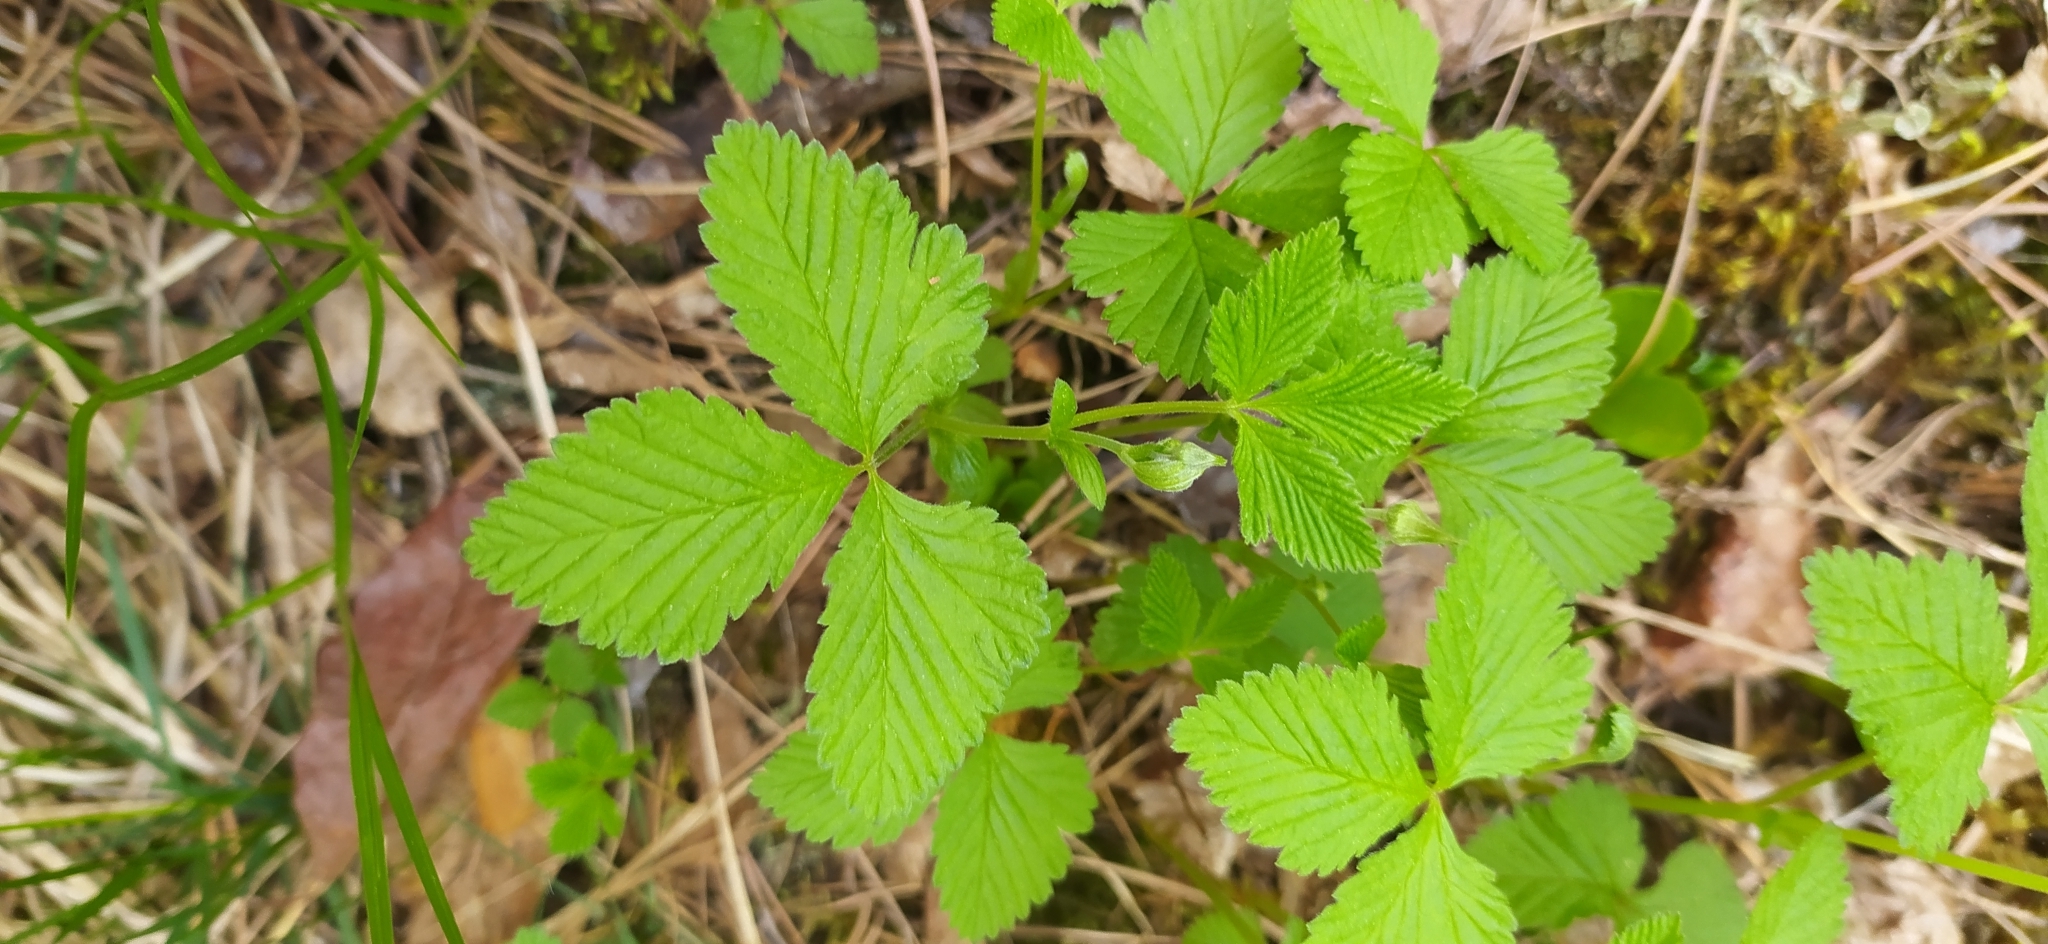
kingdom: Plantae
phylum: Tracheophyta
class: Magnoliopsida
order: Rosales
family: Rosaceae
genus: Rubus
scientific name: Rubus saxatilis
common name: Stone bramble
